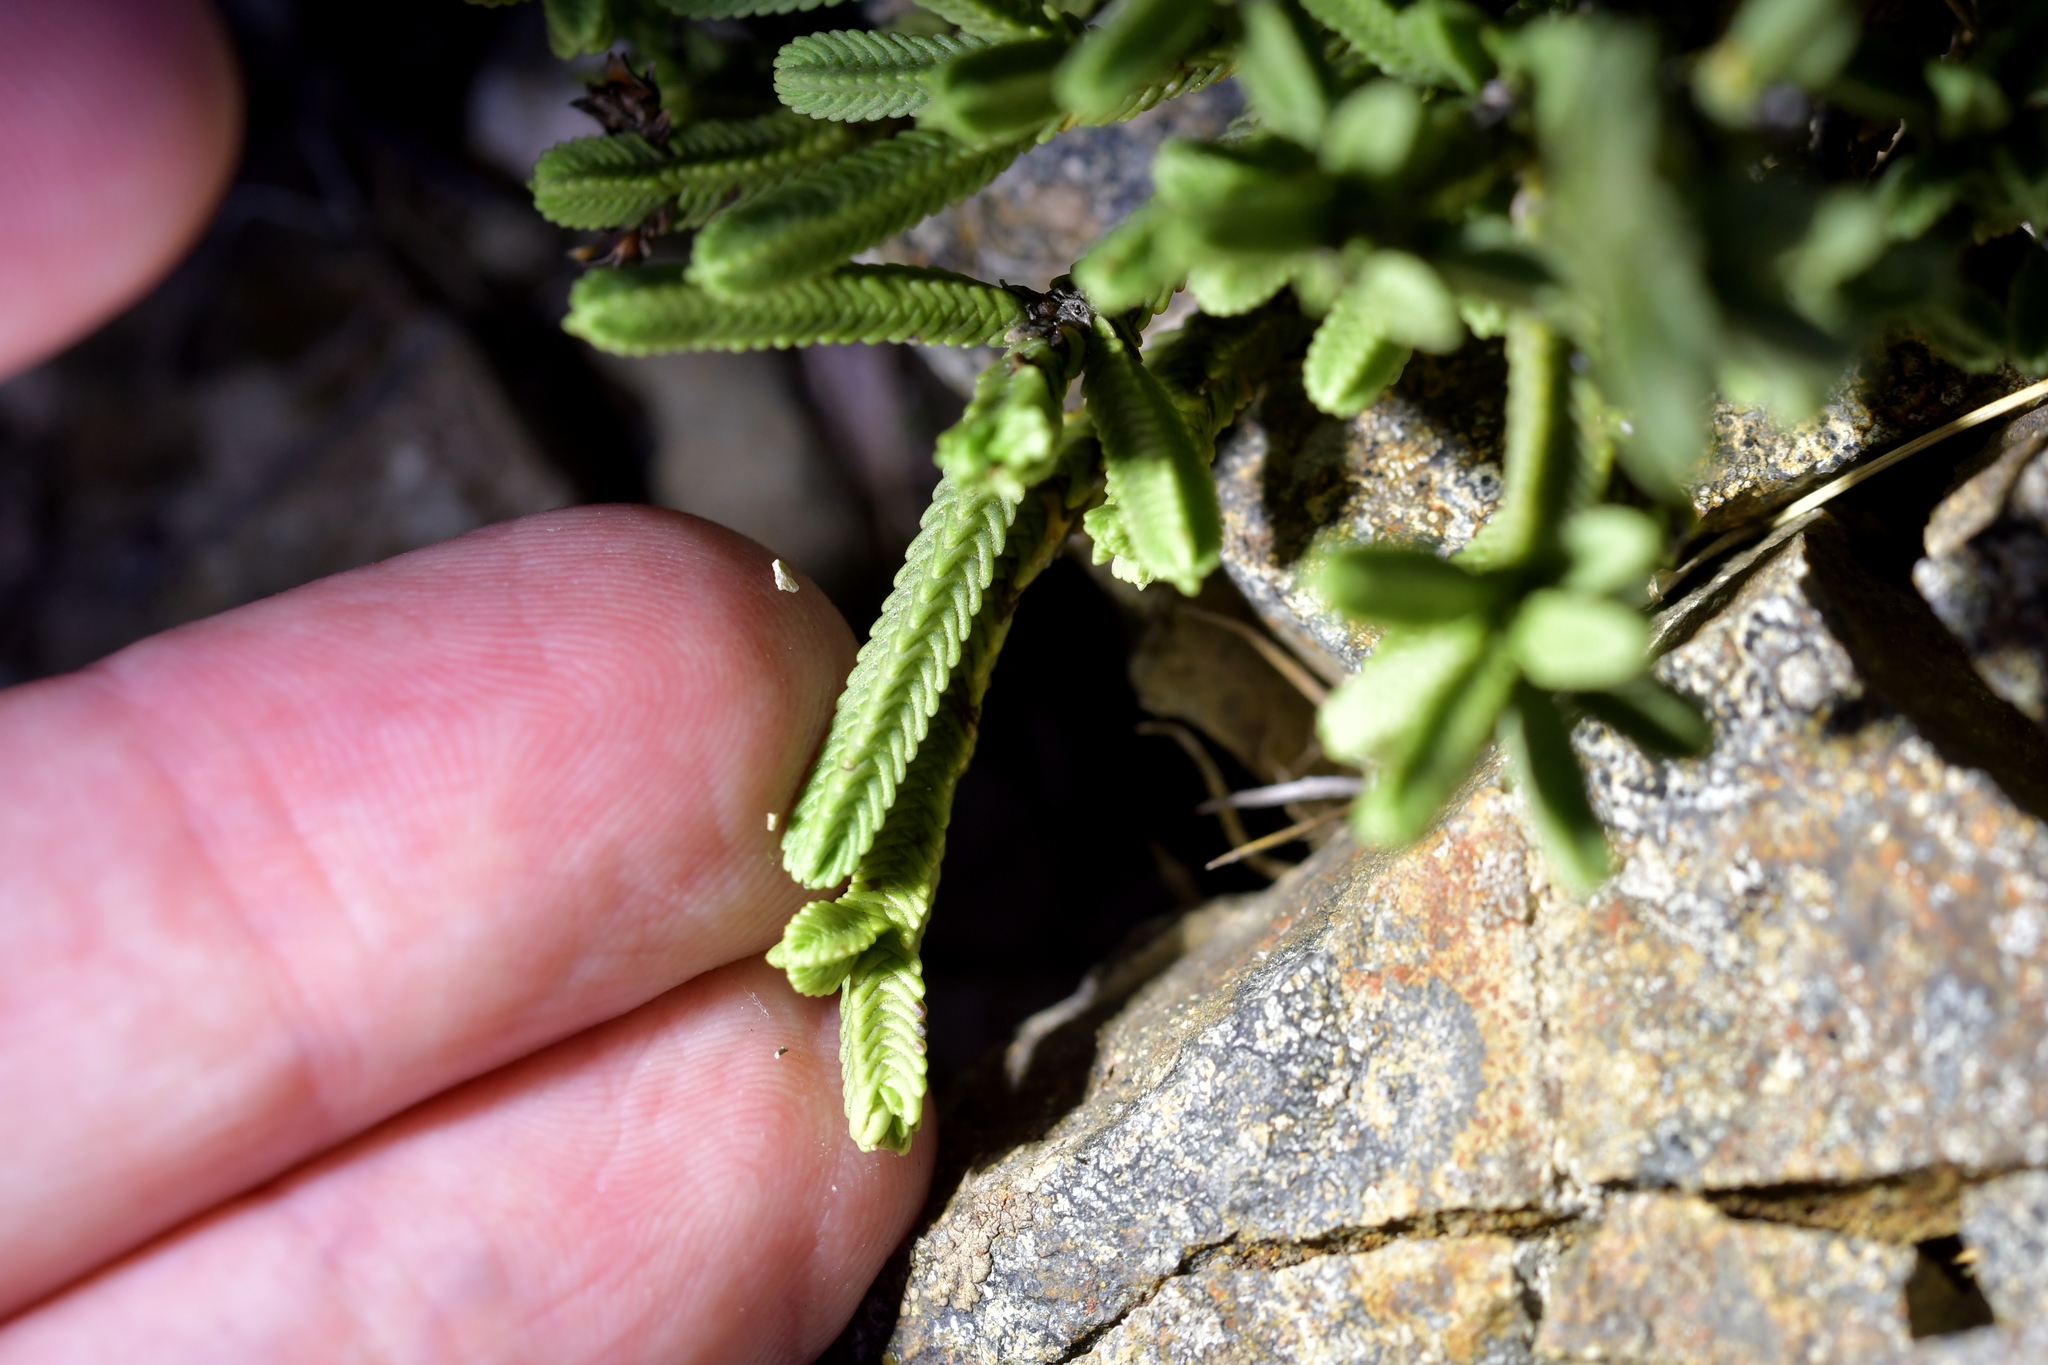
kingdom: Plantae
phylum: Tracheophyta
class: Magnoliopsida
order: Lamiales
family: Plantaginaceae
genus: Veronica
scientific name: Veronica tetrasticha
